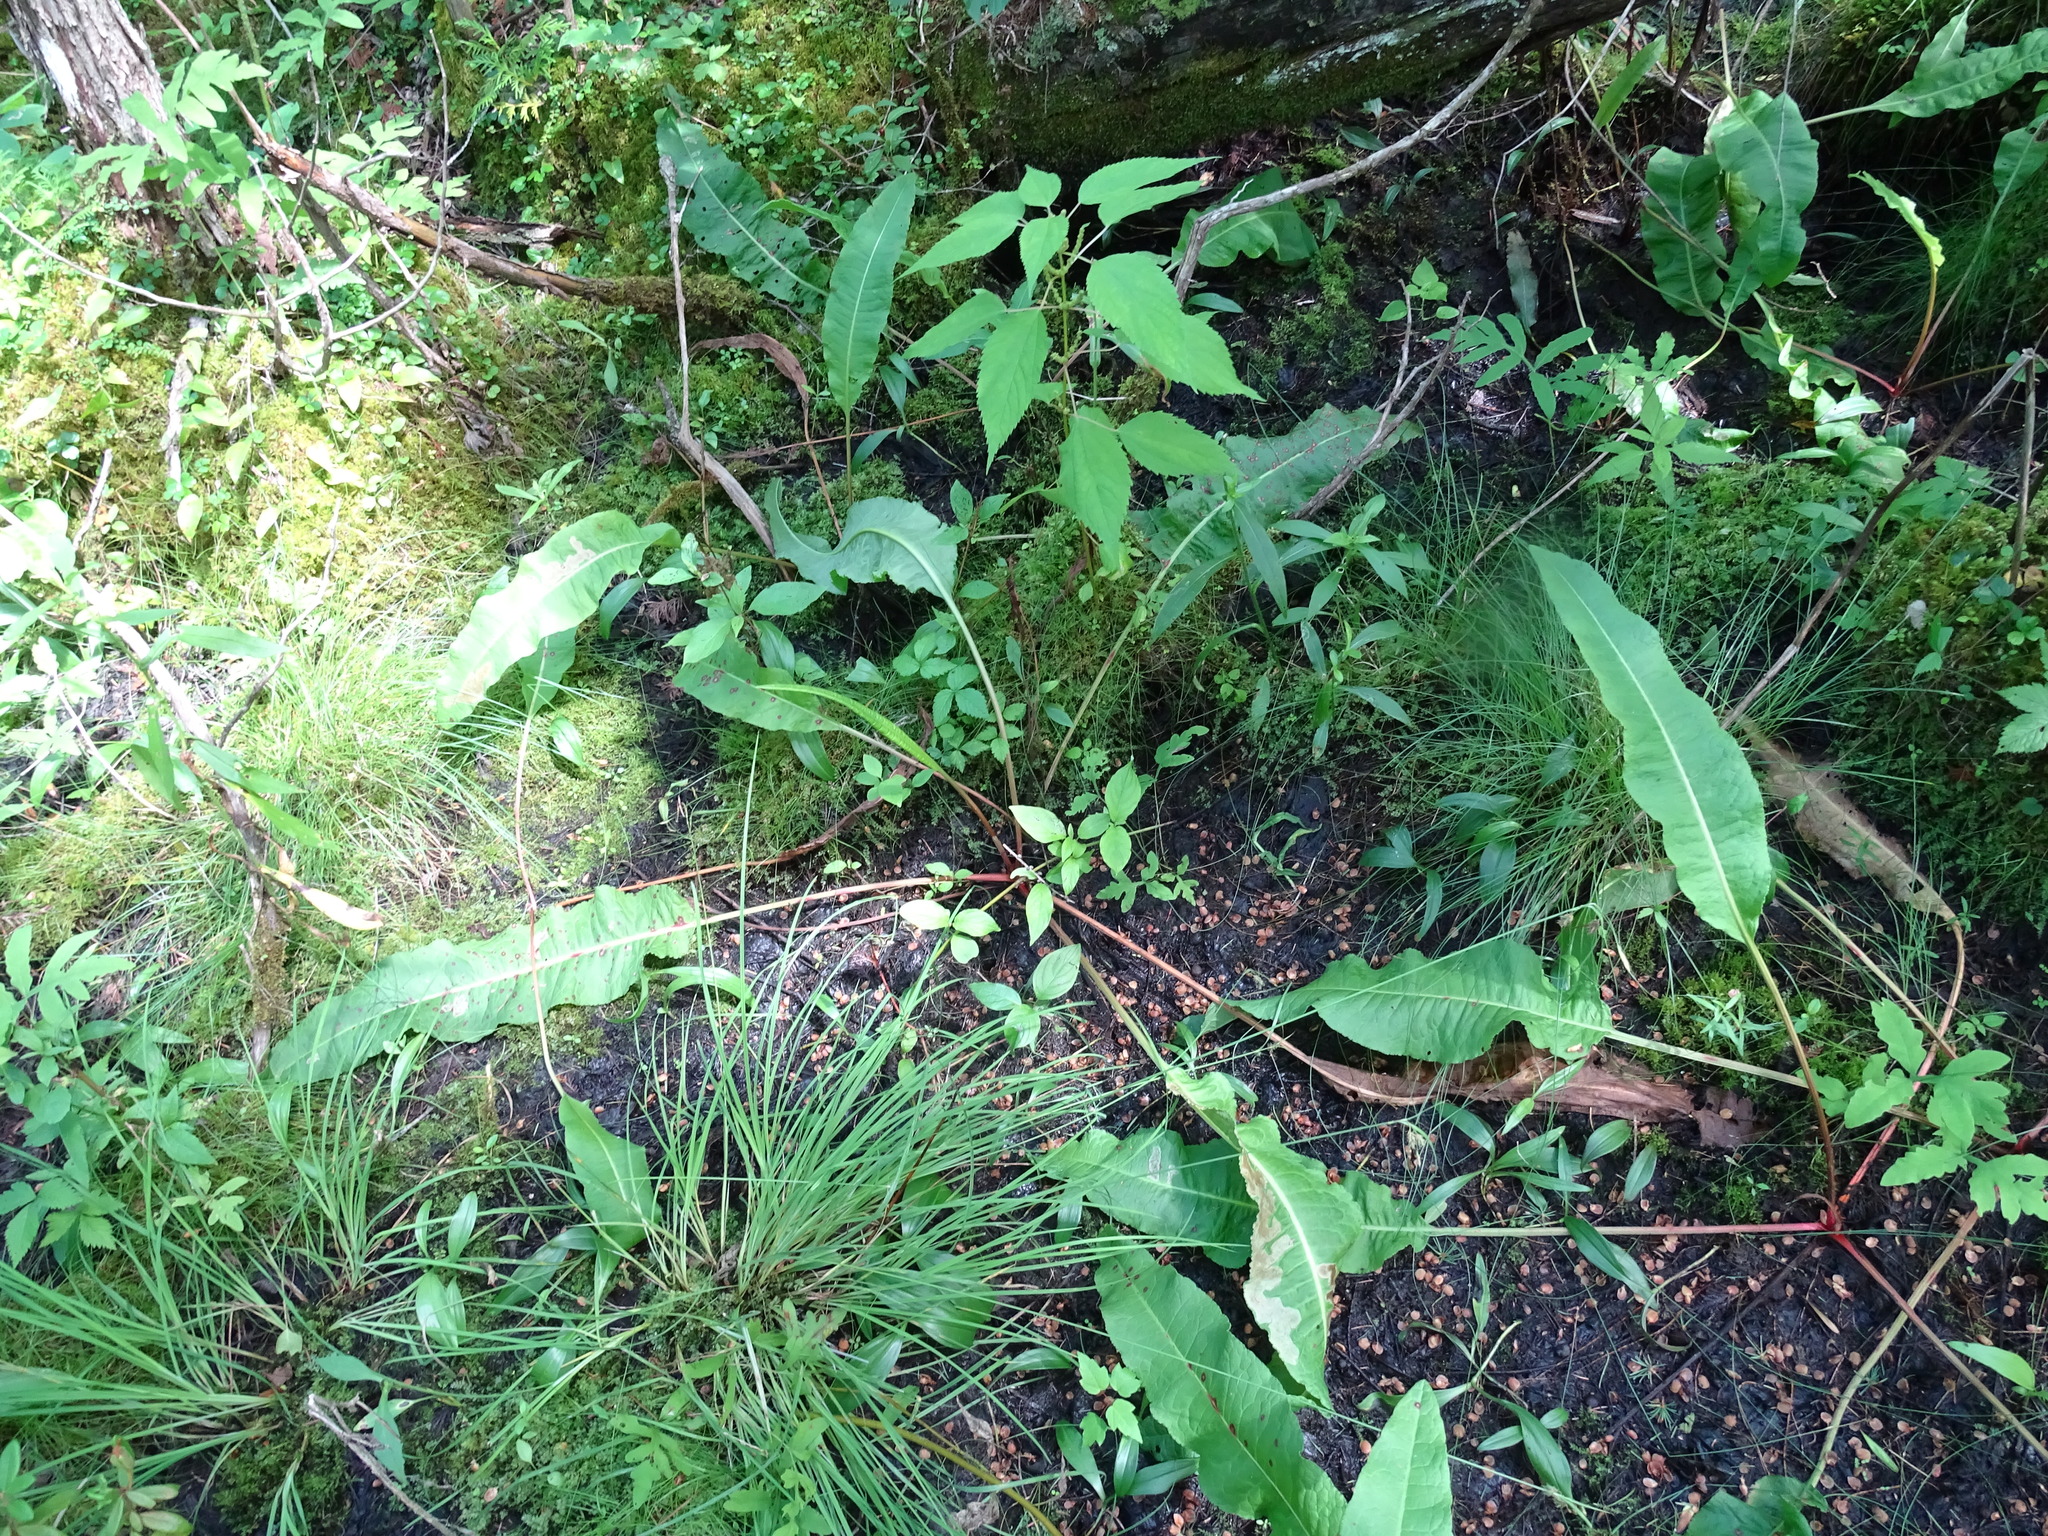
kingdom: Plantae
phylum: Tracheophyta
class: Magnoliopsida
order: Caryophyllales
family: Polygonaceae
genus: Rumex
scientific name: Rumex britannica
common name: British dock
